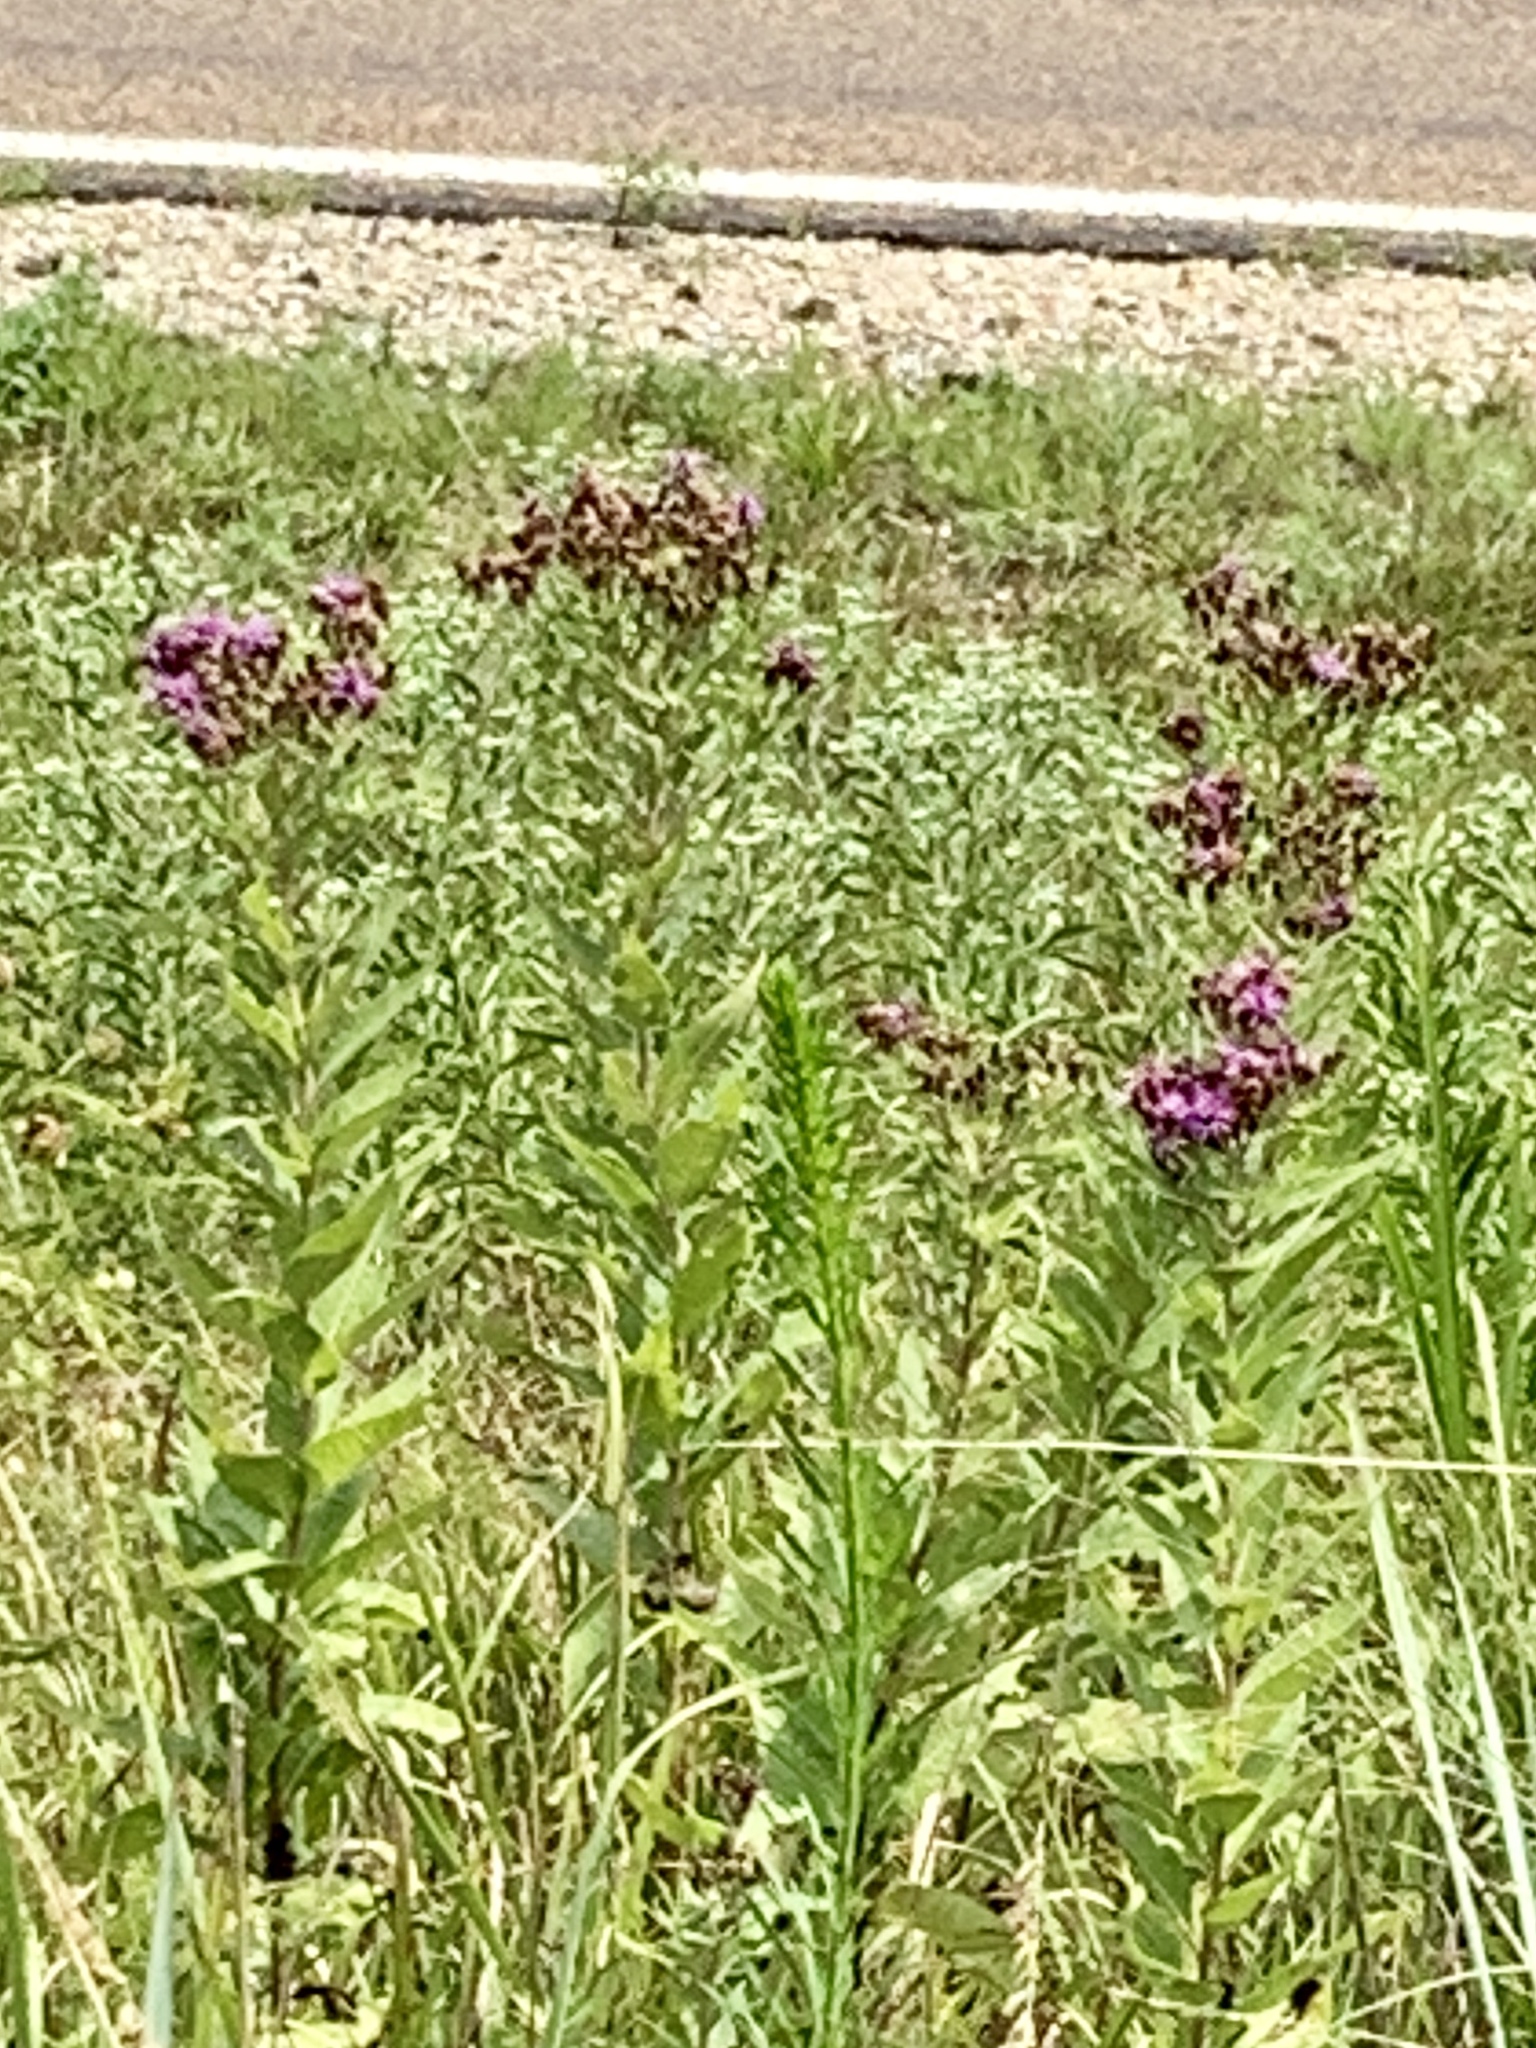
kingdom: Plantae
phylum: Tracheophyta
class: Magnoliopsida
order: Asterales
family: Asteraceae
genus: Vernonia
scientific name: Vernonia baldwinii
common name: Western ironweed
